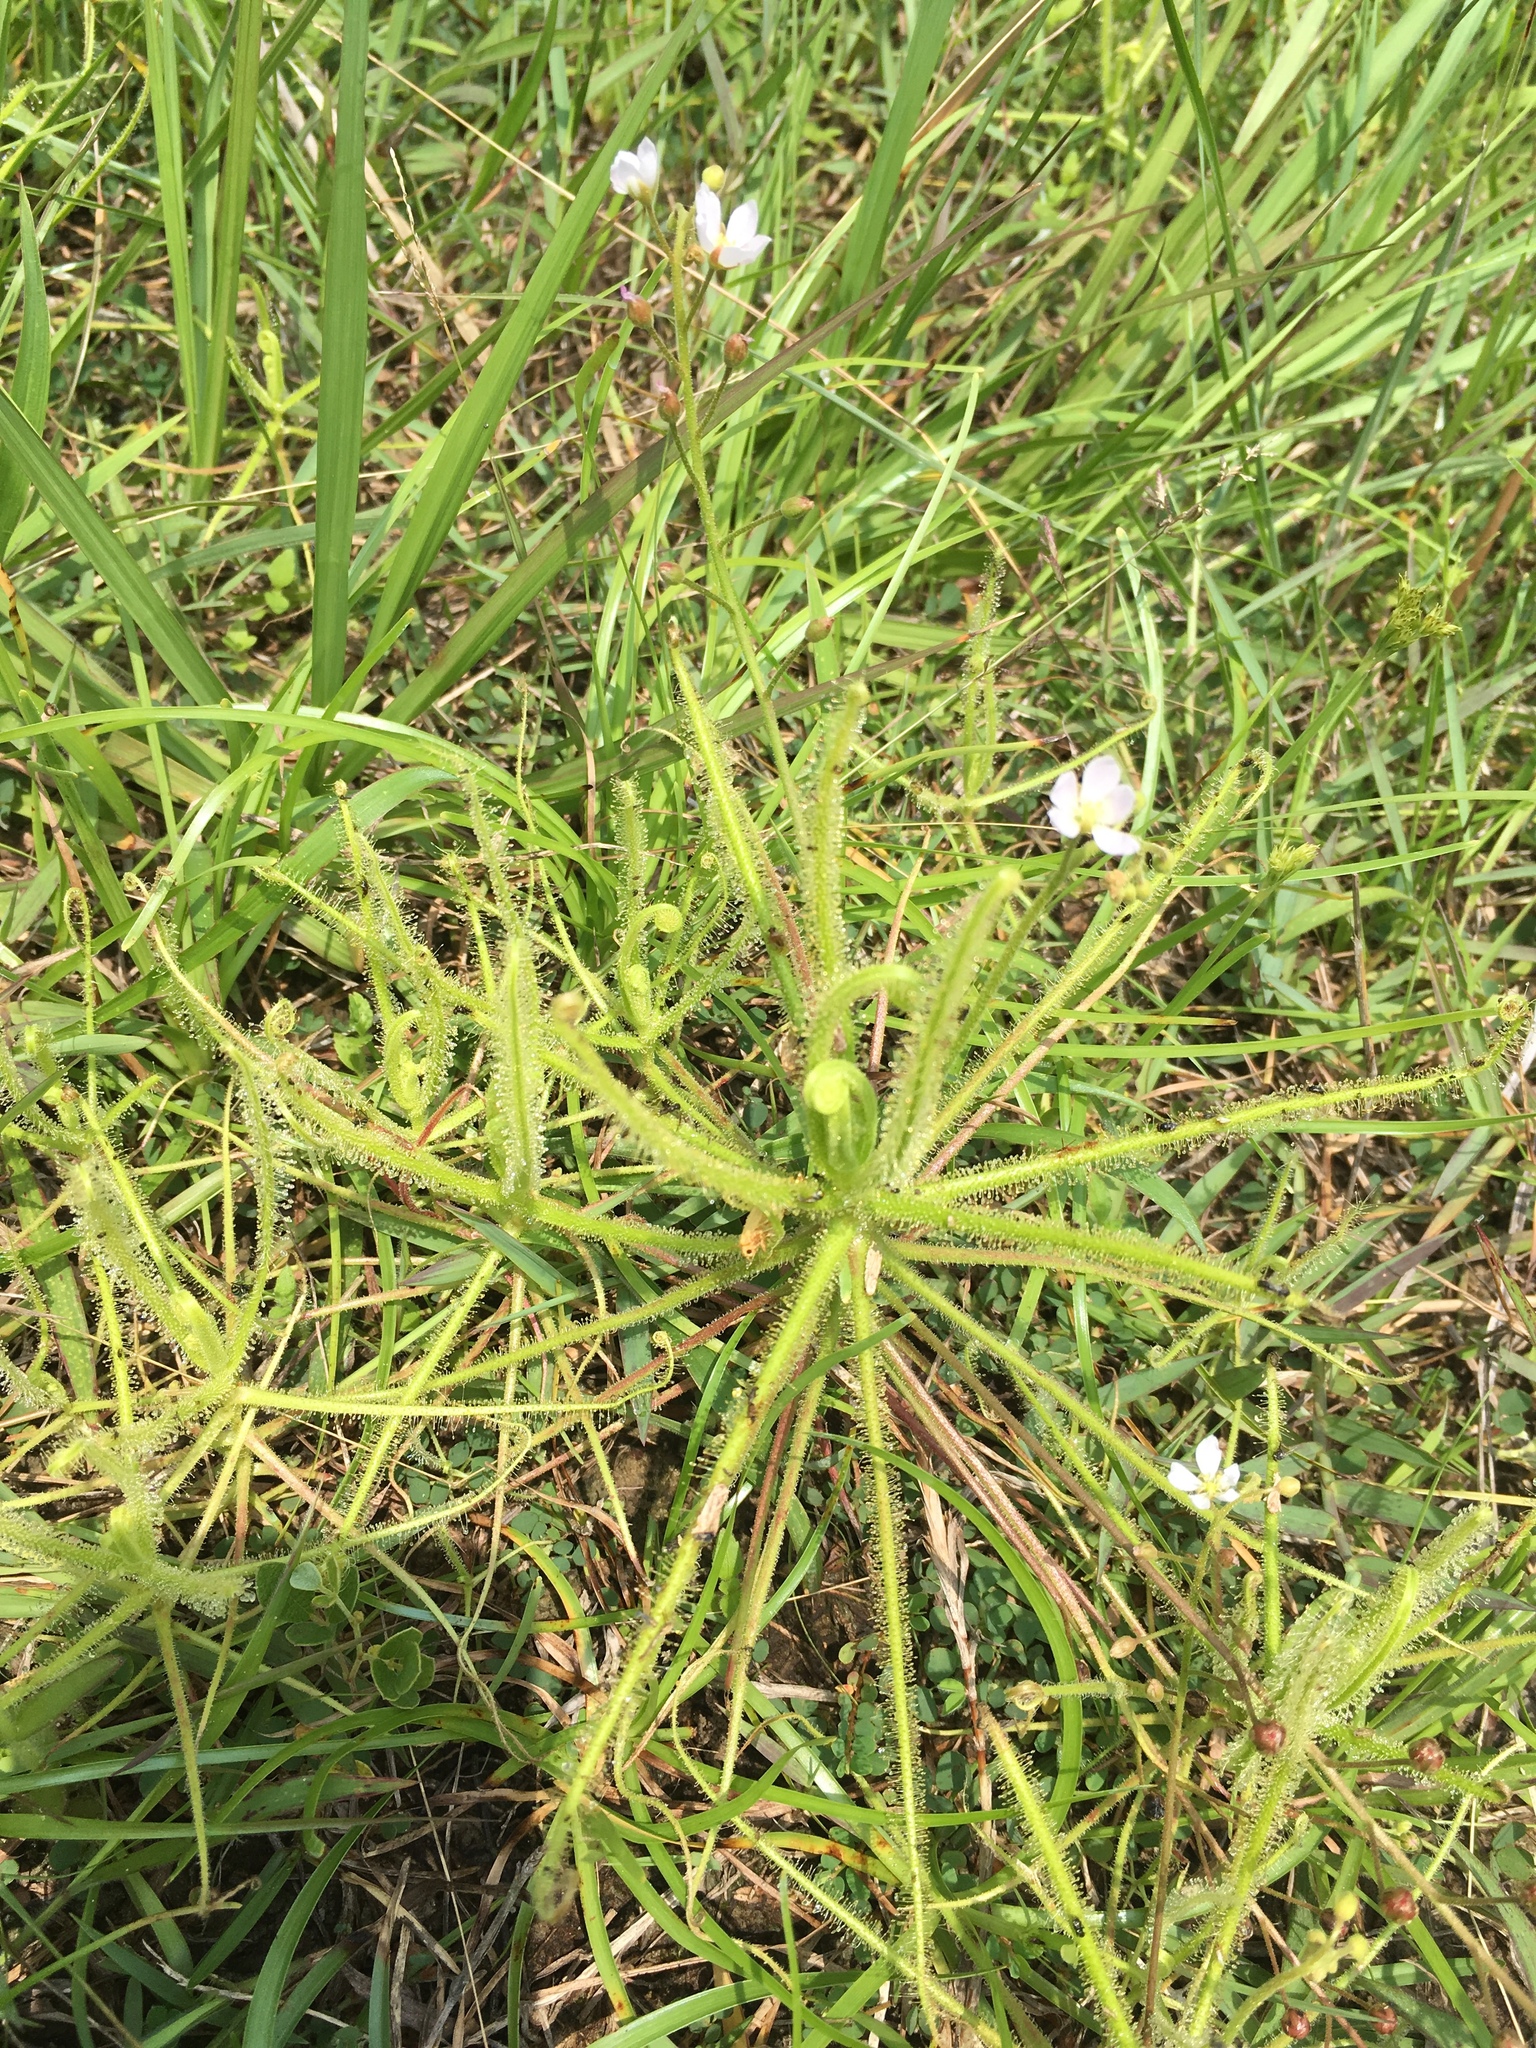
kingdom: Plantae
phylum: Tracheophyta
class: Magnoliopsida
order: Caryophyllales
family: Droseraceae
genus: Drosera
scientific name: Drosera finlaysoniana
